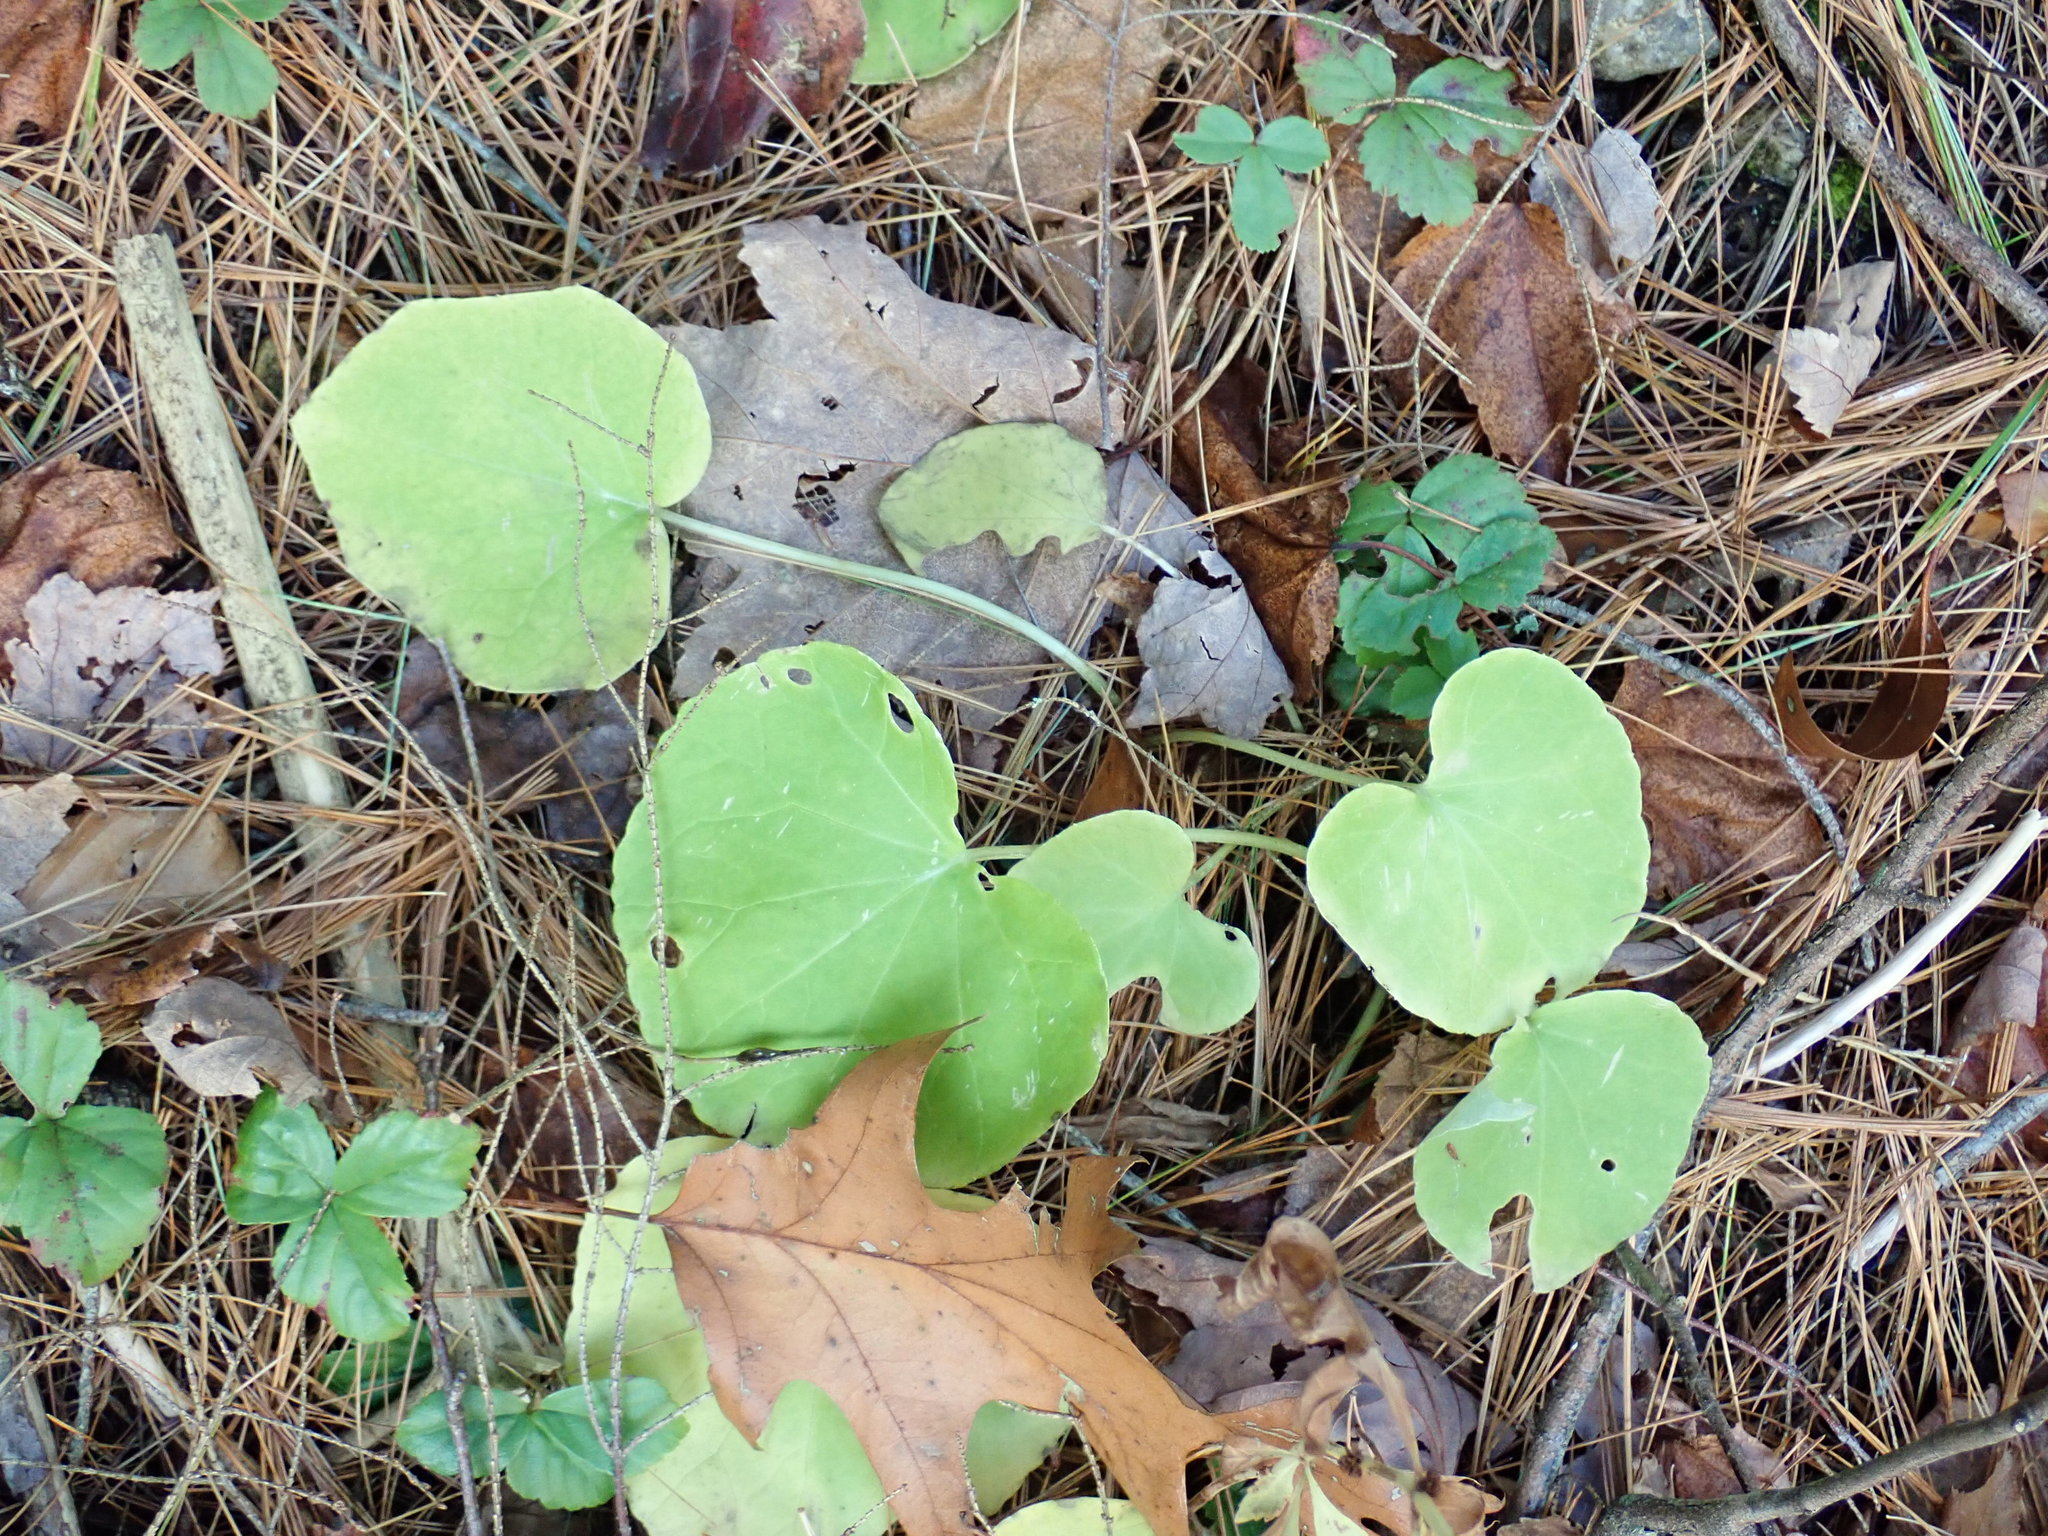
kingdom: Plantae
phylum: Tracheophyta
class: Magnoliopsida
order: Asterales
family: Asteraceae
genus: Tussilago
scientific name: Tussilago farfara
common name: Coltsfoot
